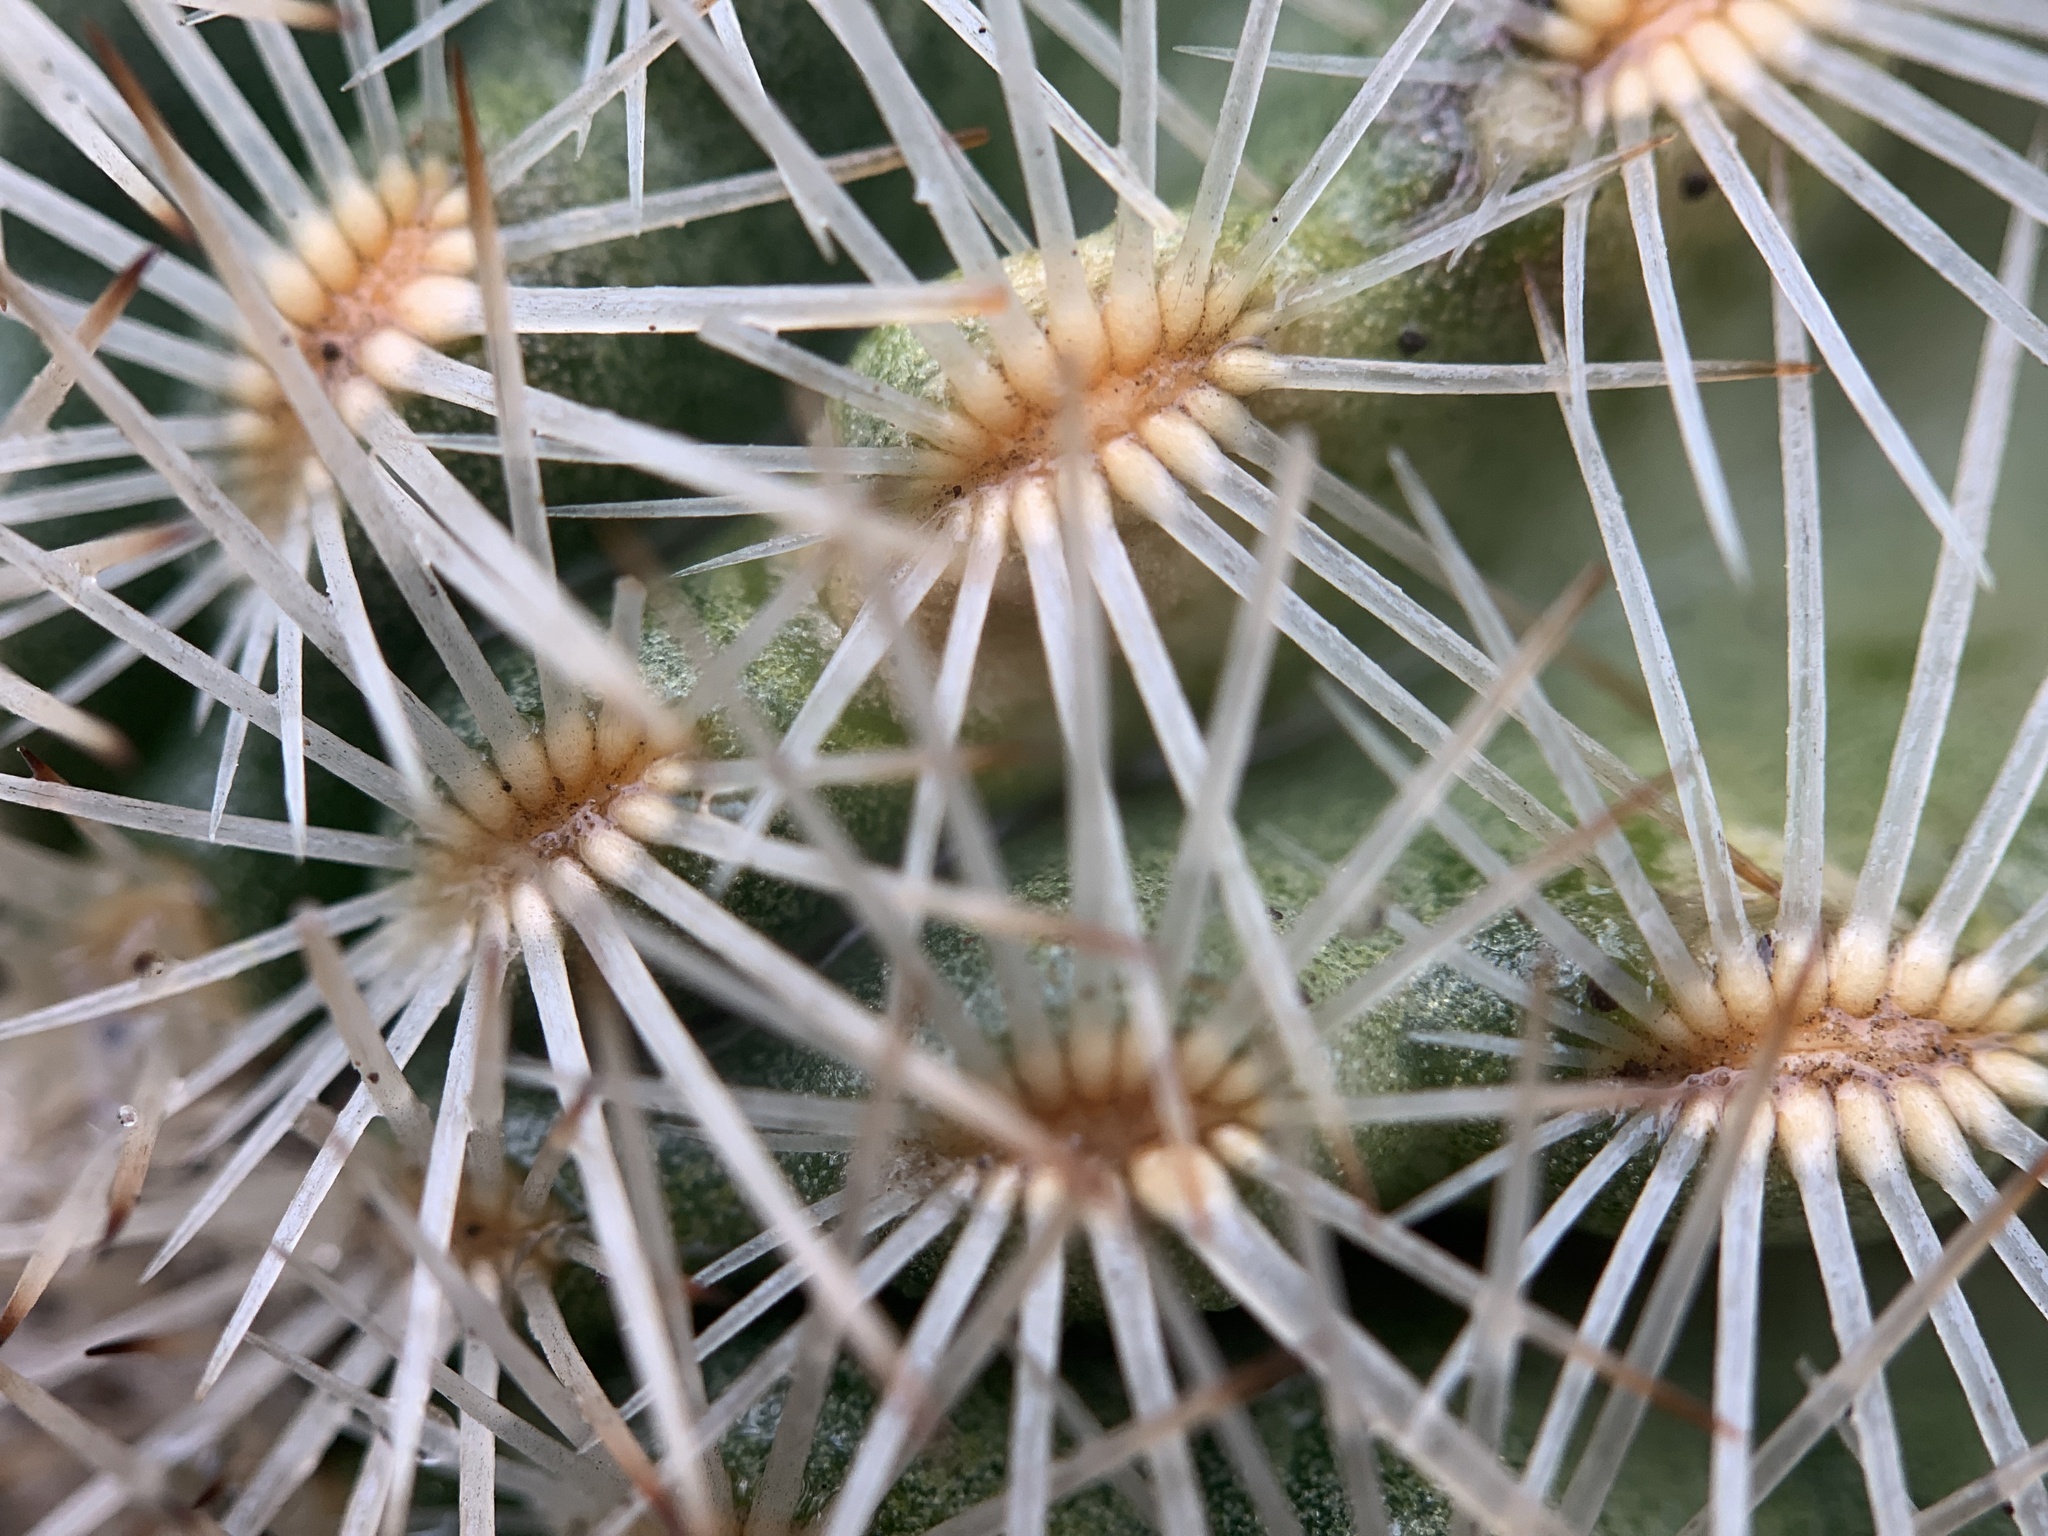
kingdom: Plantae
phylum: Tracheophyta
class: Magnoliopsida
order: Caryophyllales
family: Cactaceae
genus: Echinocereus
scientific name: Echinocereus reichenbachii
